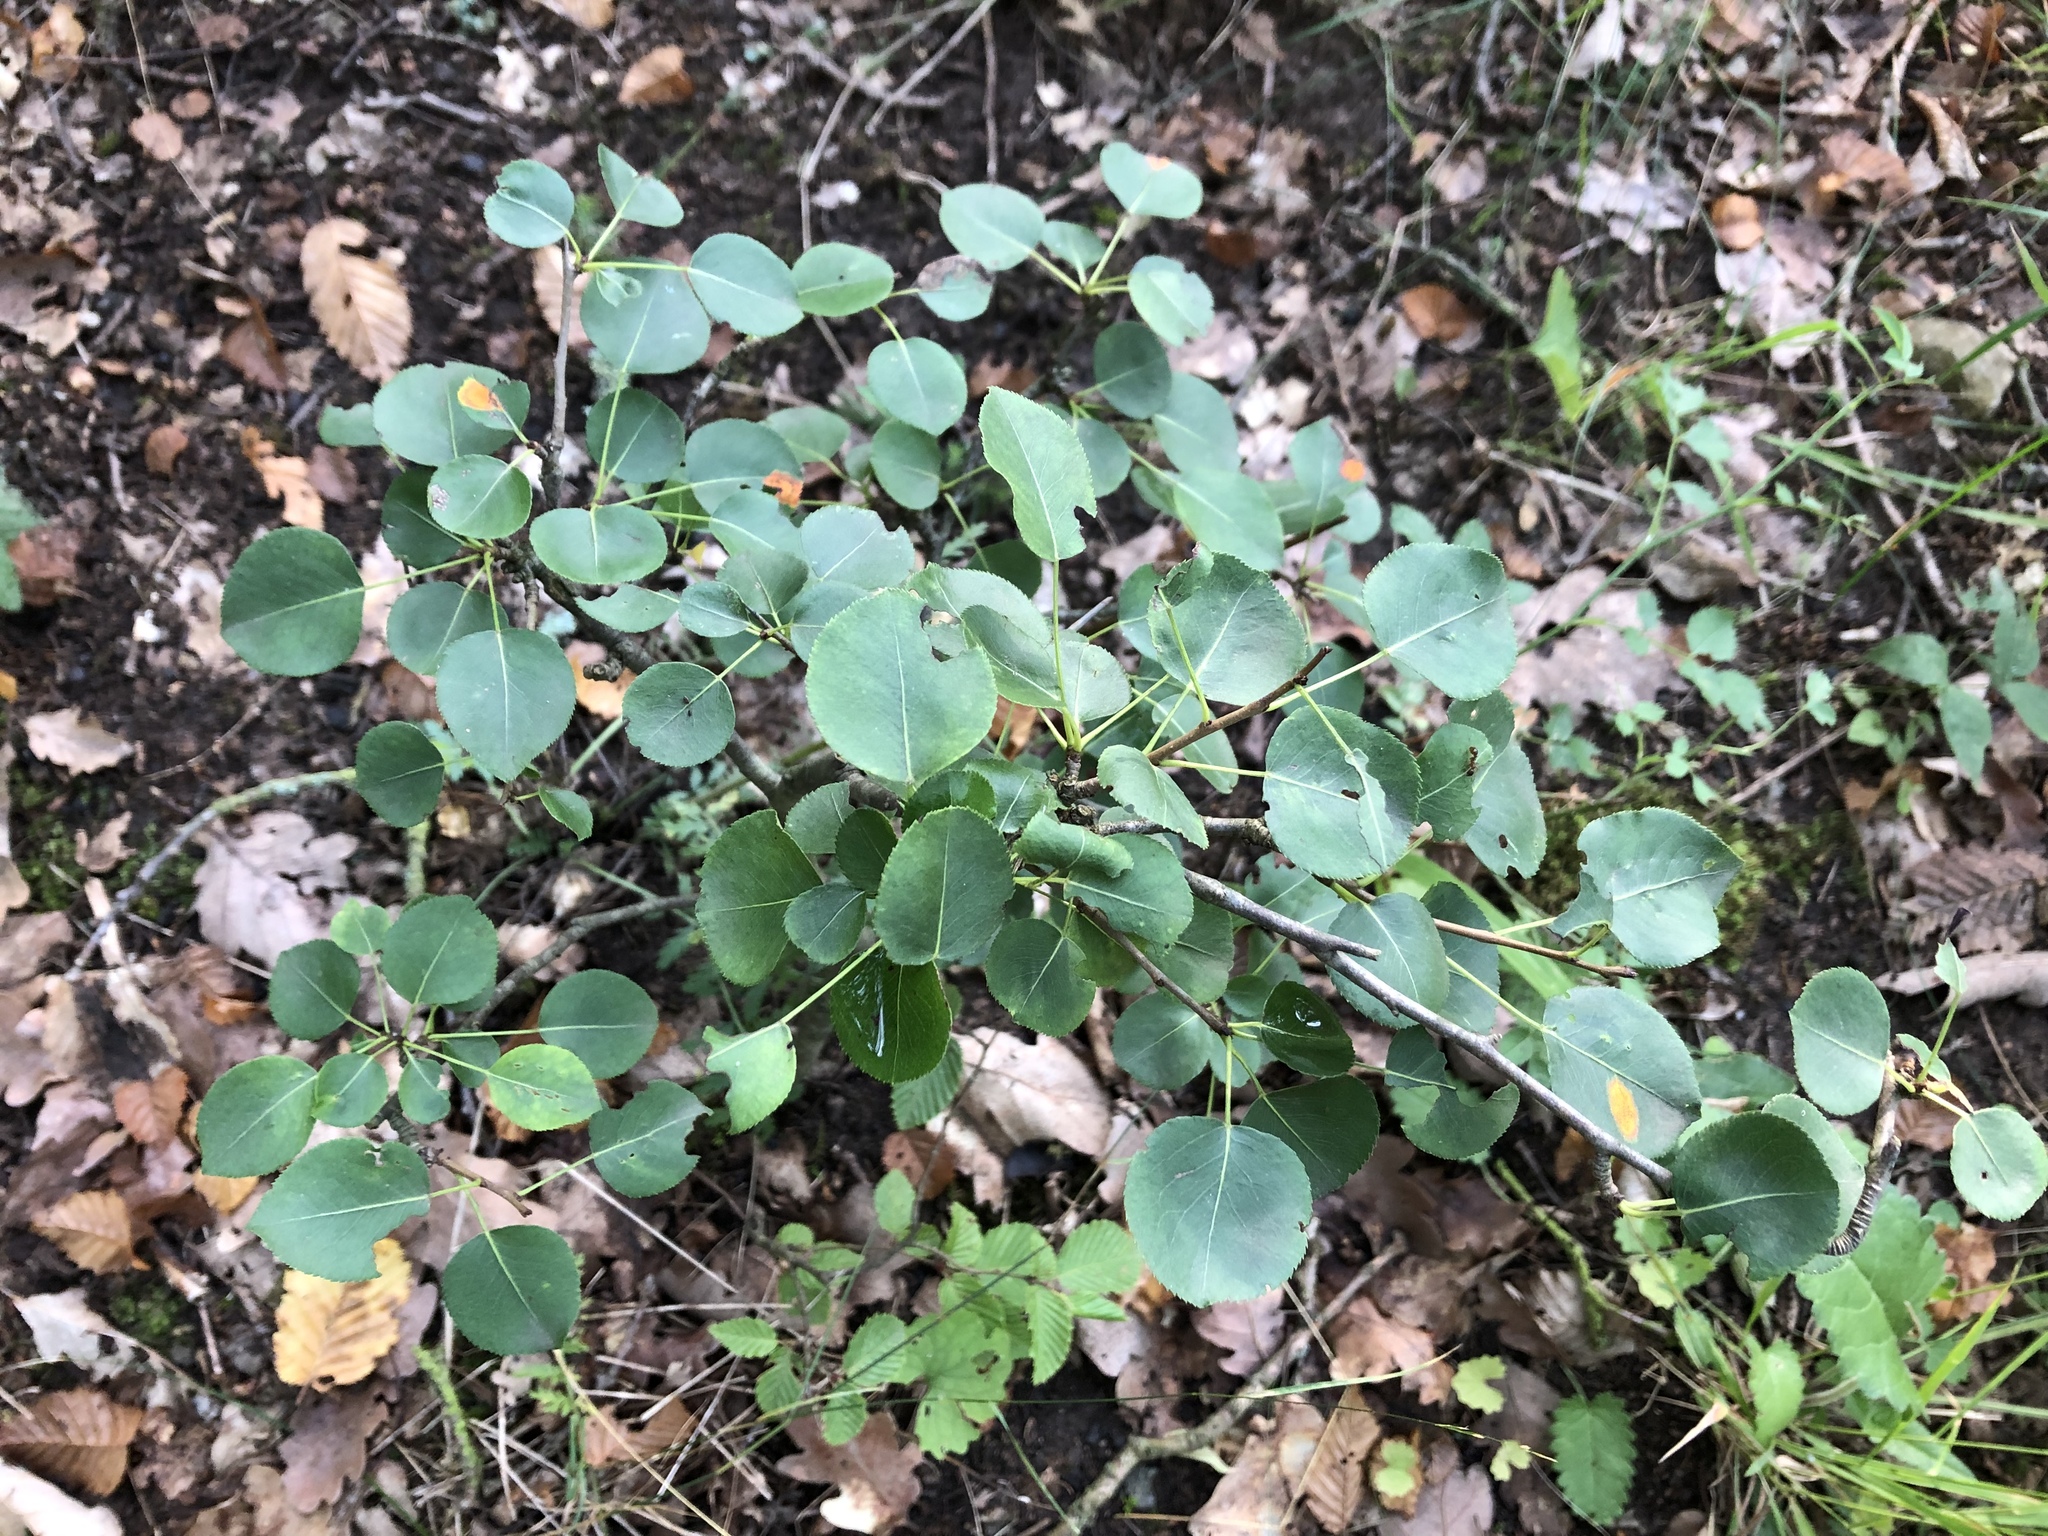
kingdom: Plantae
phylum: Tracheophyta
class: Magnoliopsida
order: Rosales
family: Rosaceae
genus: Prunus
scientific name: Prunus mahaleb
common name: Mahaleb cherry
